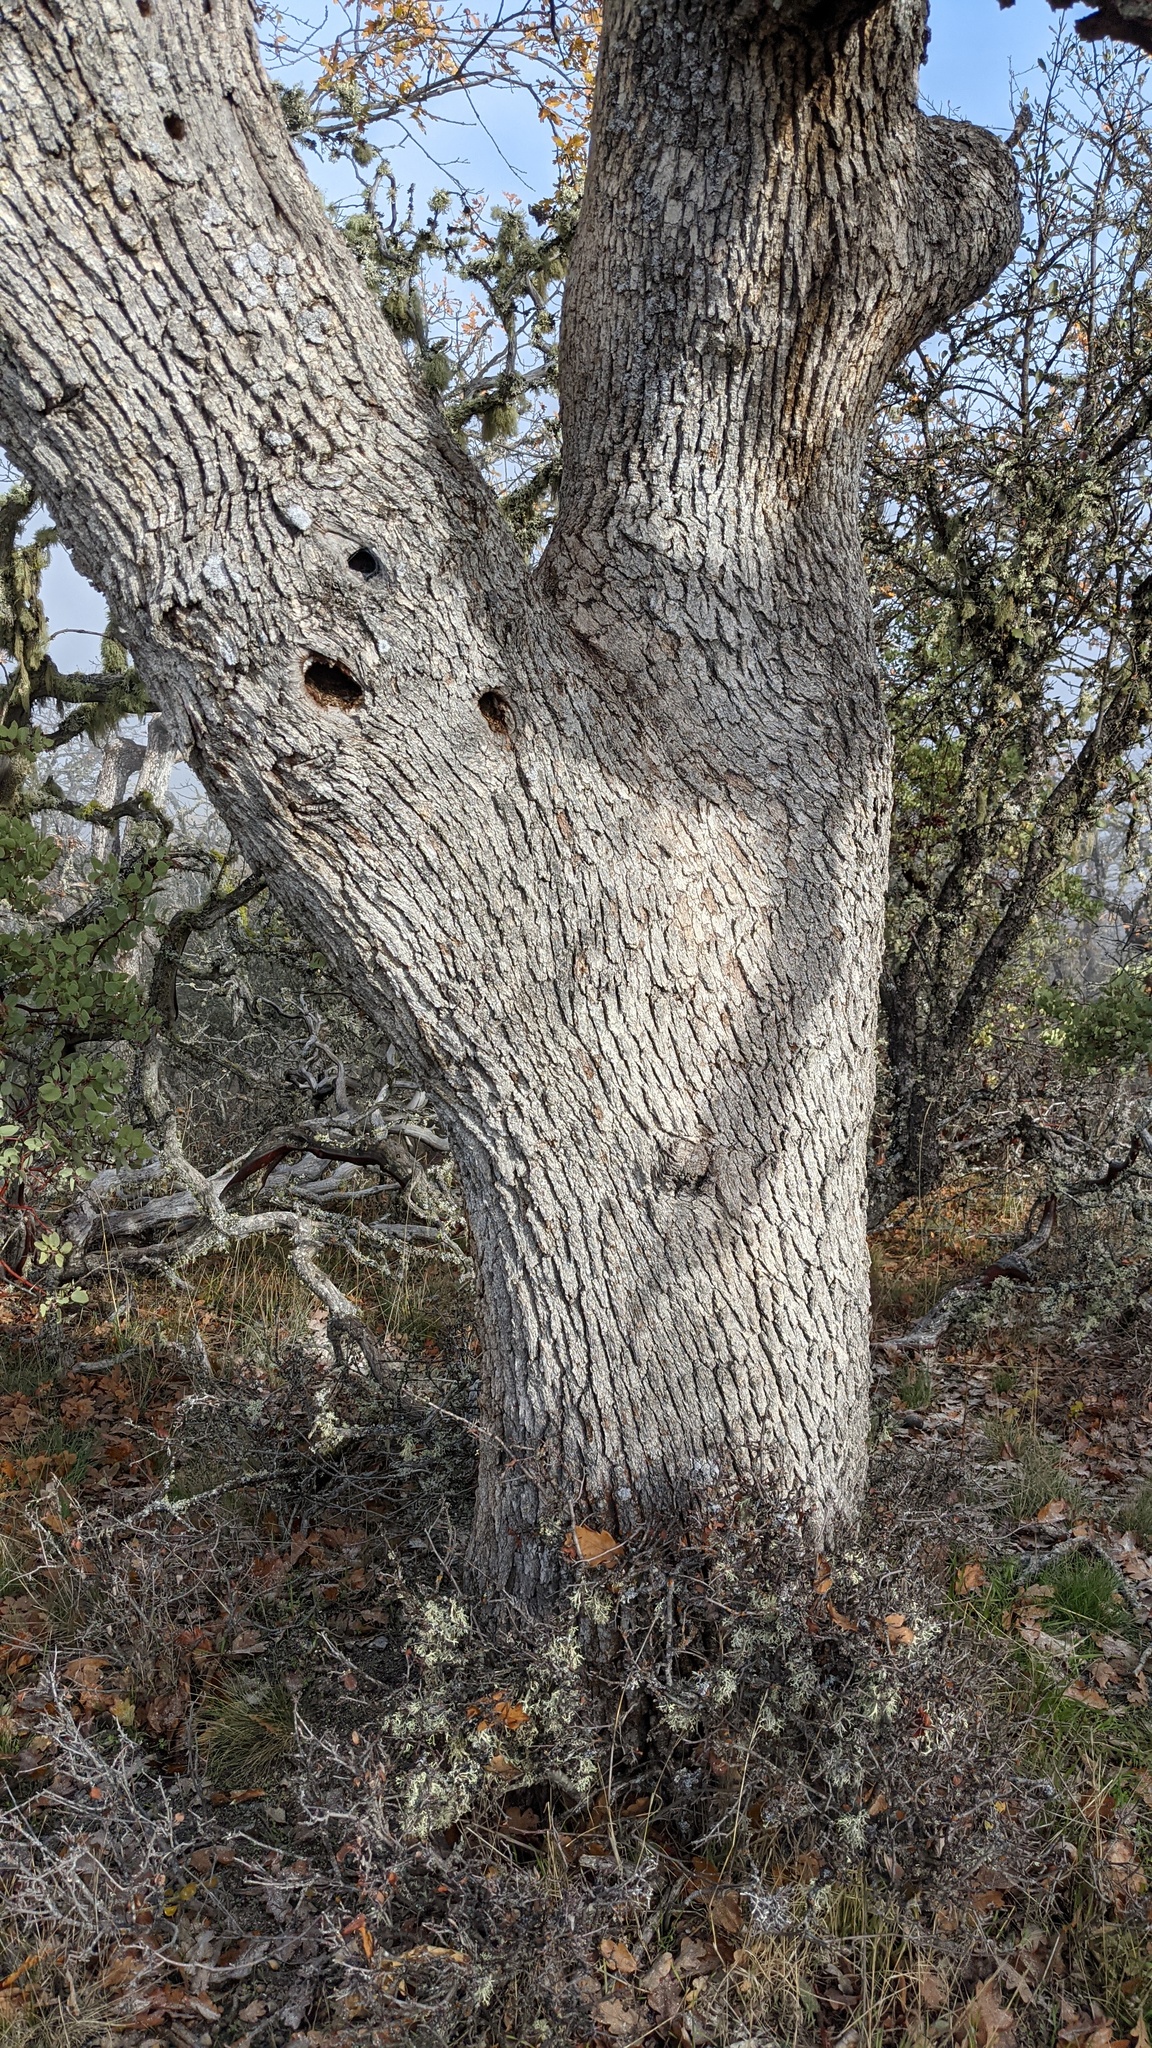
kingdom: Plantae
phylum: Tracheophyta
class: Magnoliopsida
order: Fagales
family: Fagaceae
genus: Quercus
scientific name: Quercus garryana
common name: Garry oak
